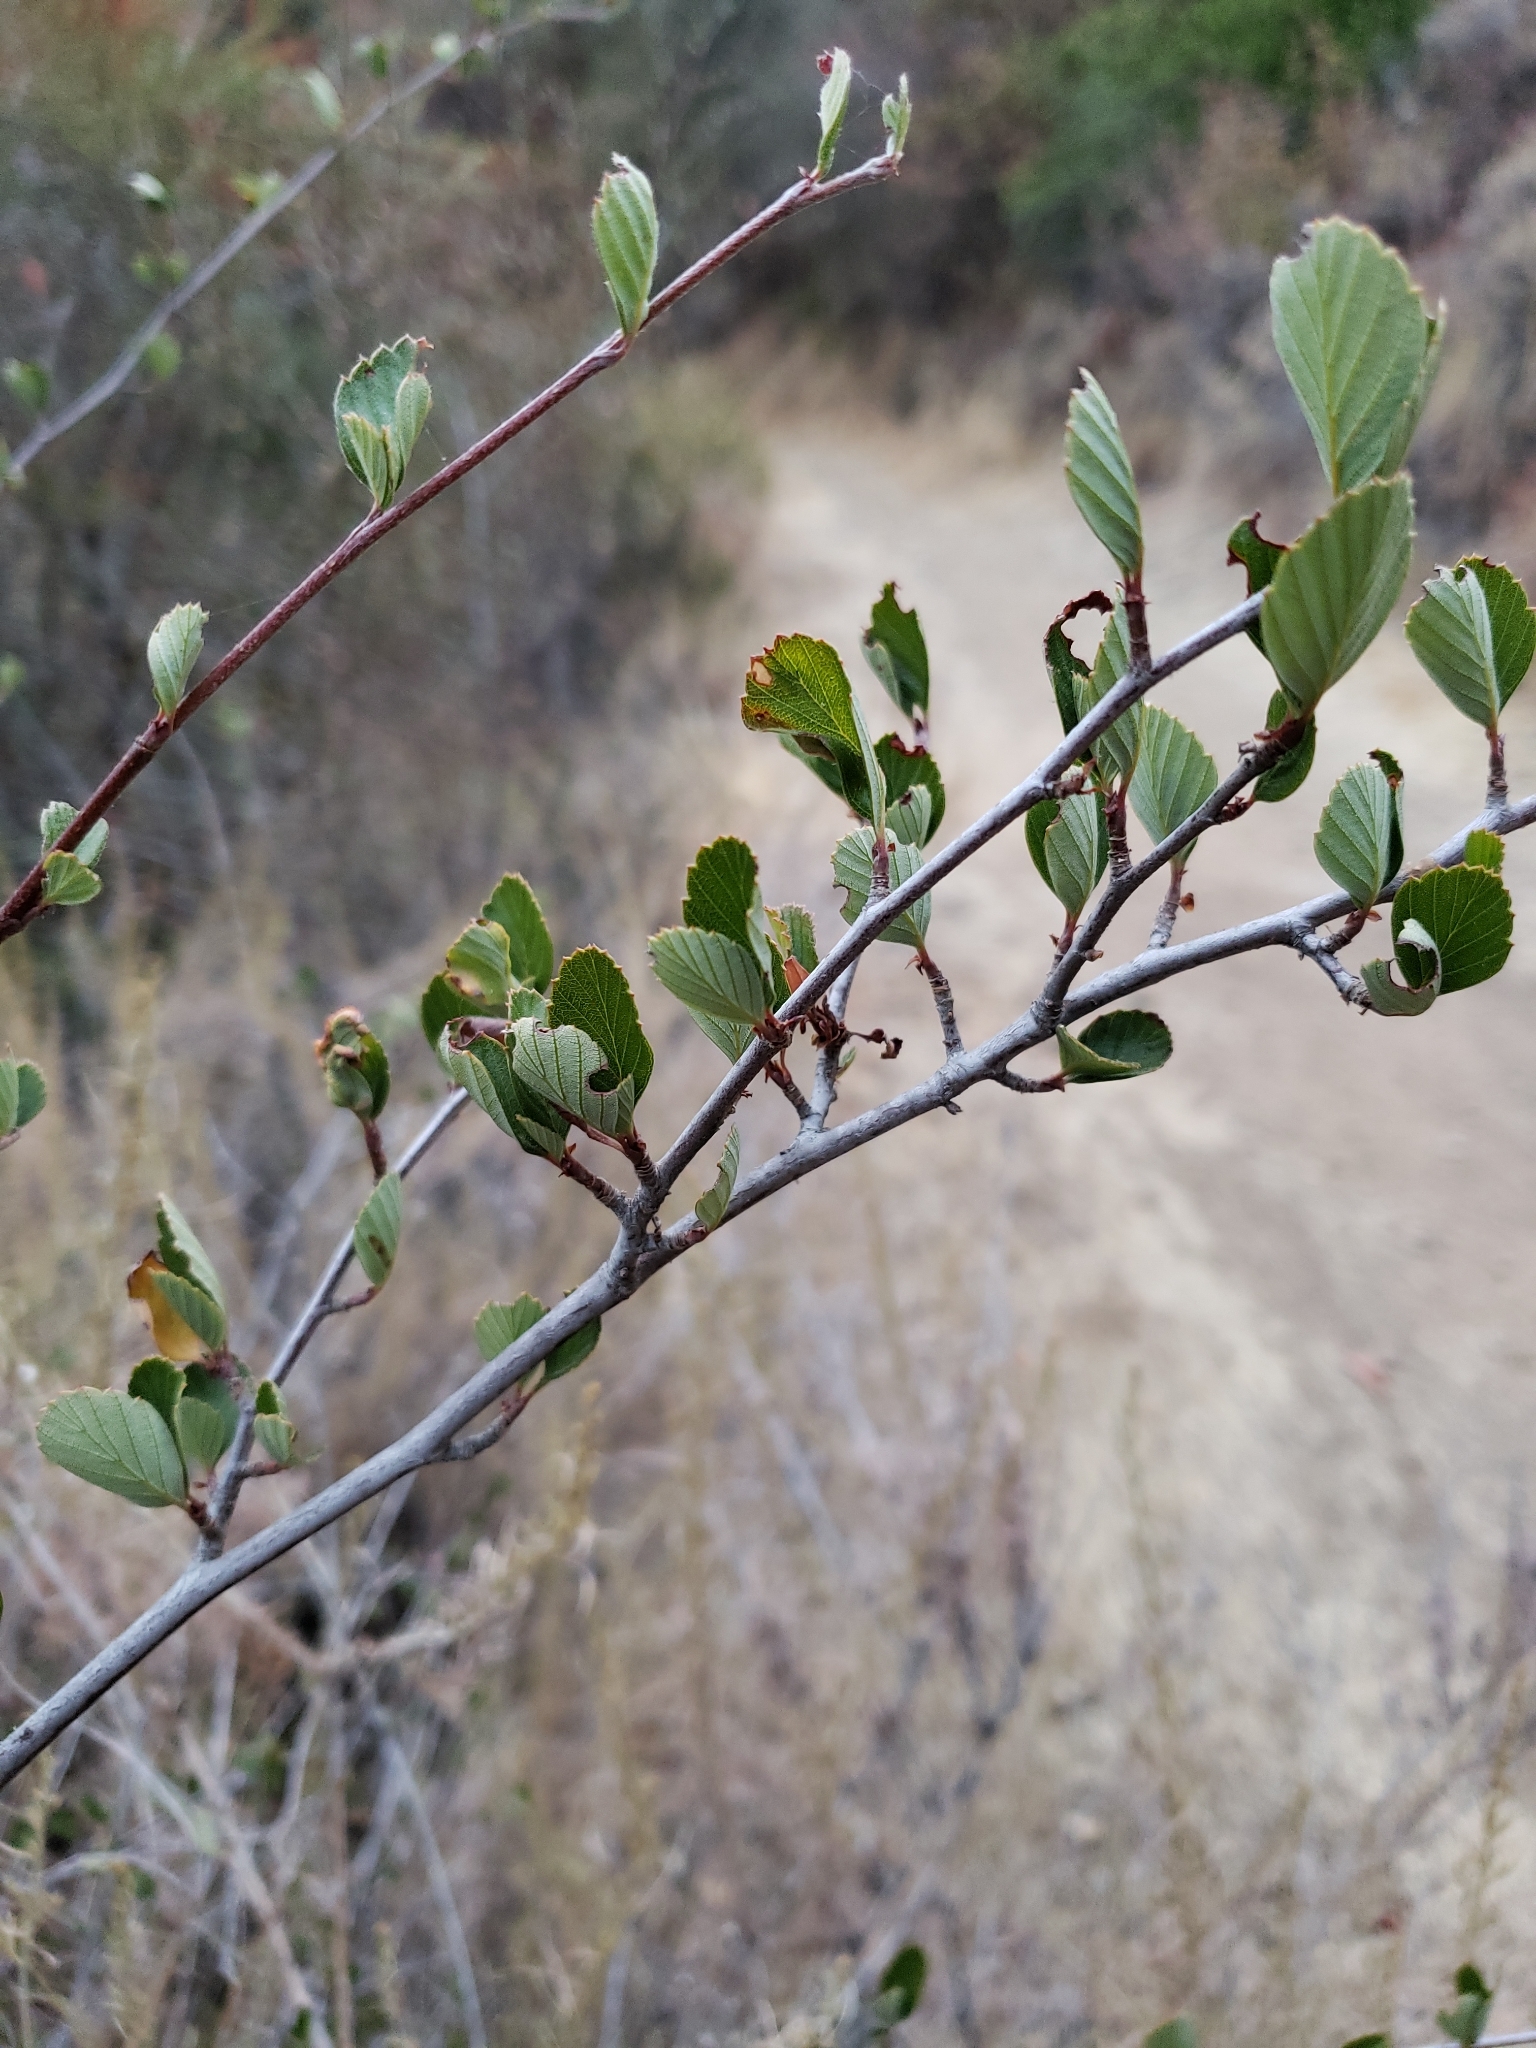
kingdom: Plantae
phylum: Tracheophyta
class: Magnoliopsida
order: Rosales
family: Rosaceae
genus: Cercocarpus
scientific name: Cercocarpus betuloides
